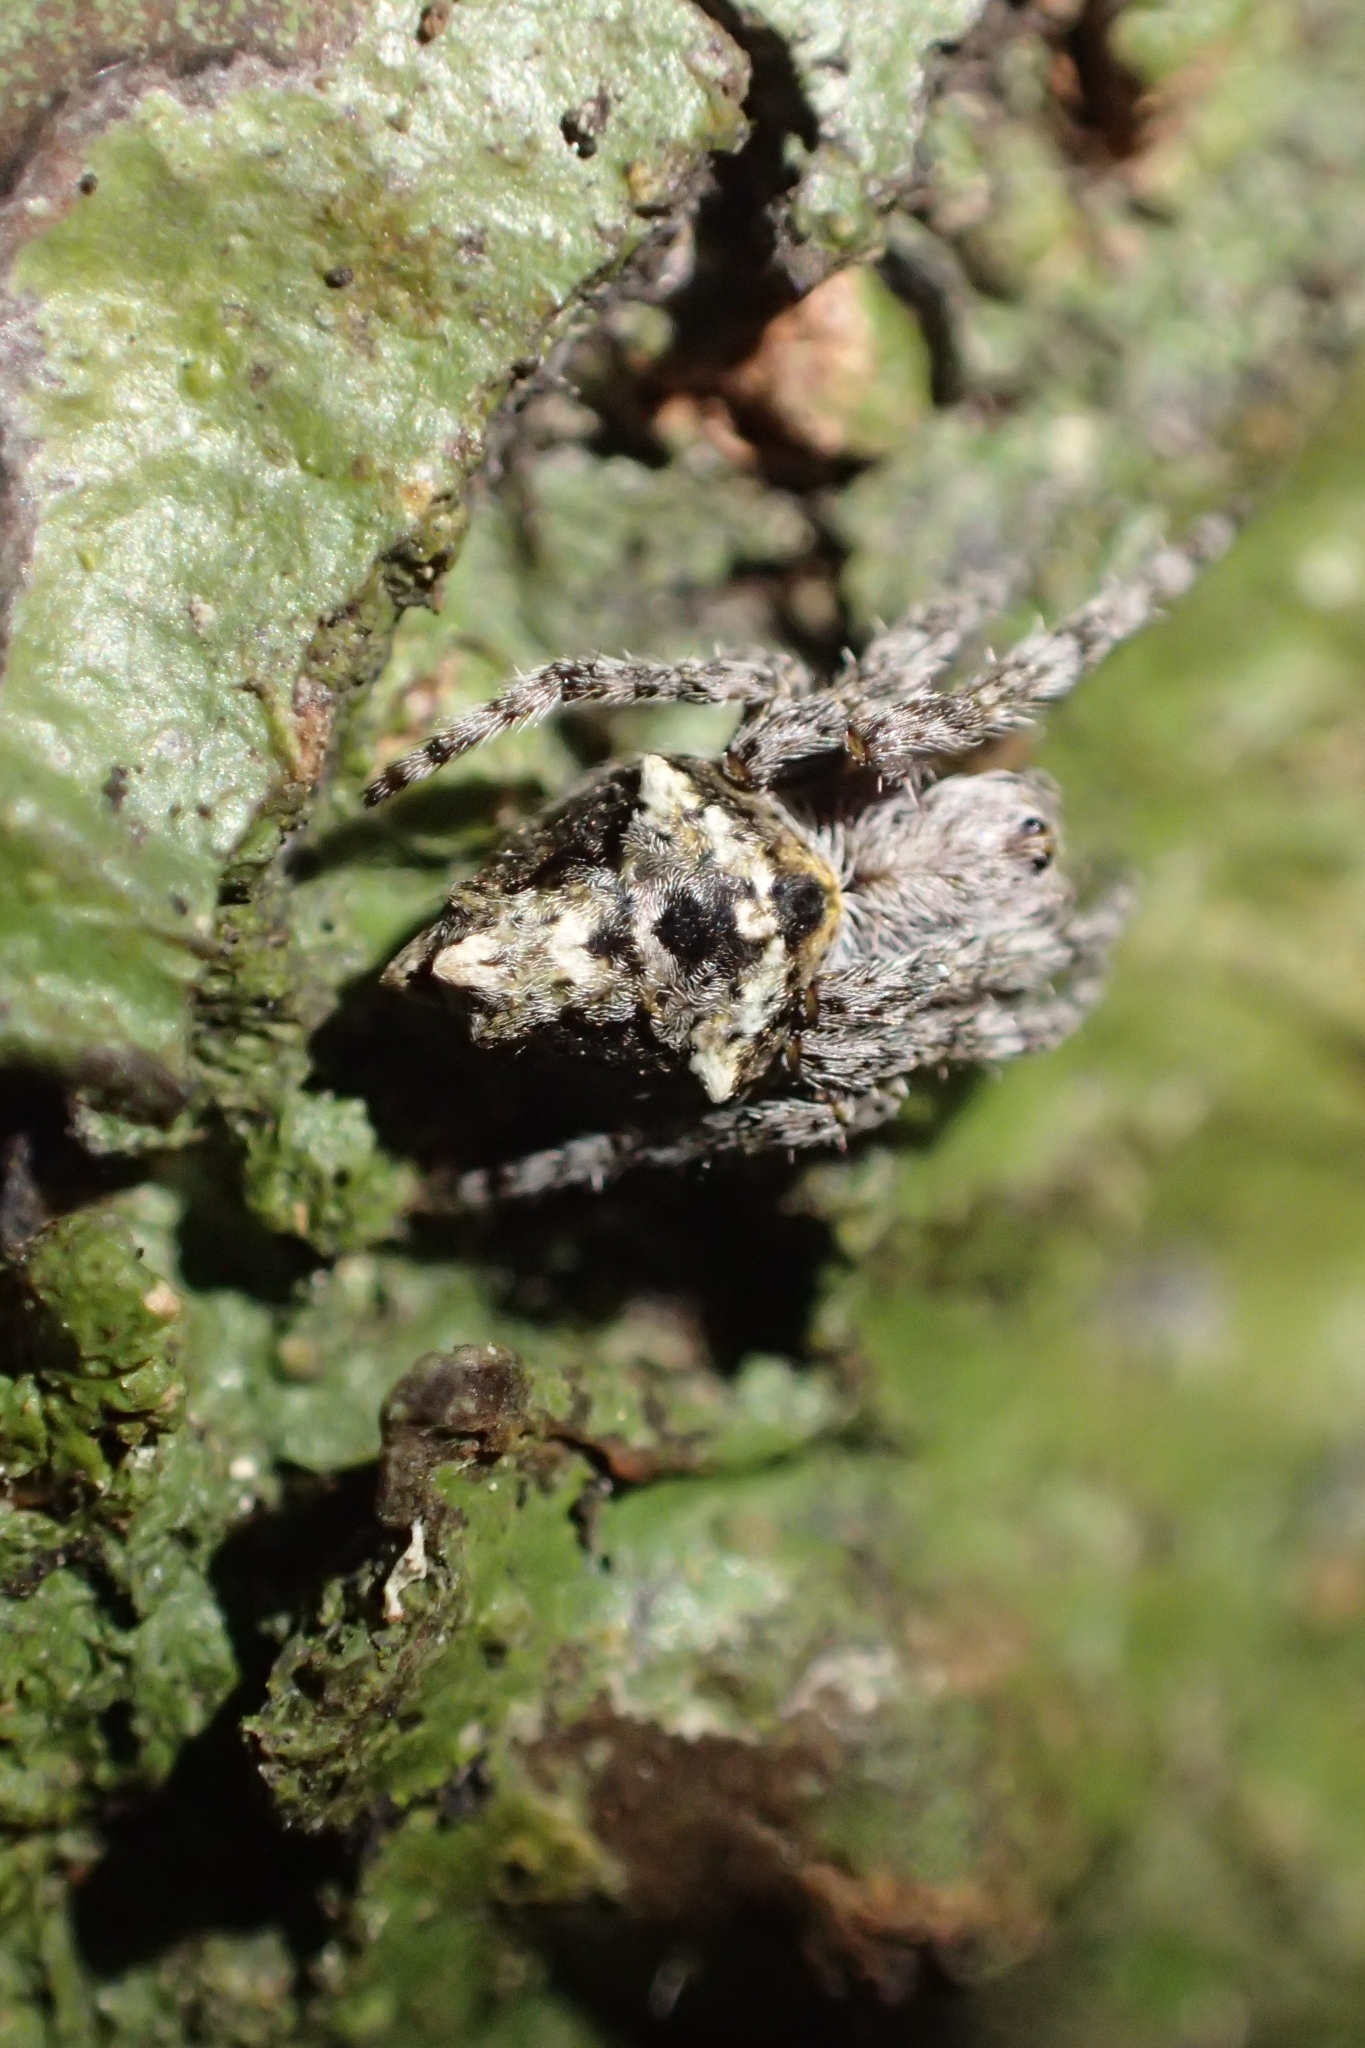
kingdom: Animalia
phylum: Arthropoda
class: Arachnida
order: Araneae
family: Araneidae
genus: Eriophora
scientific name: Eriophora pustulosa
